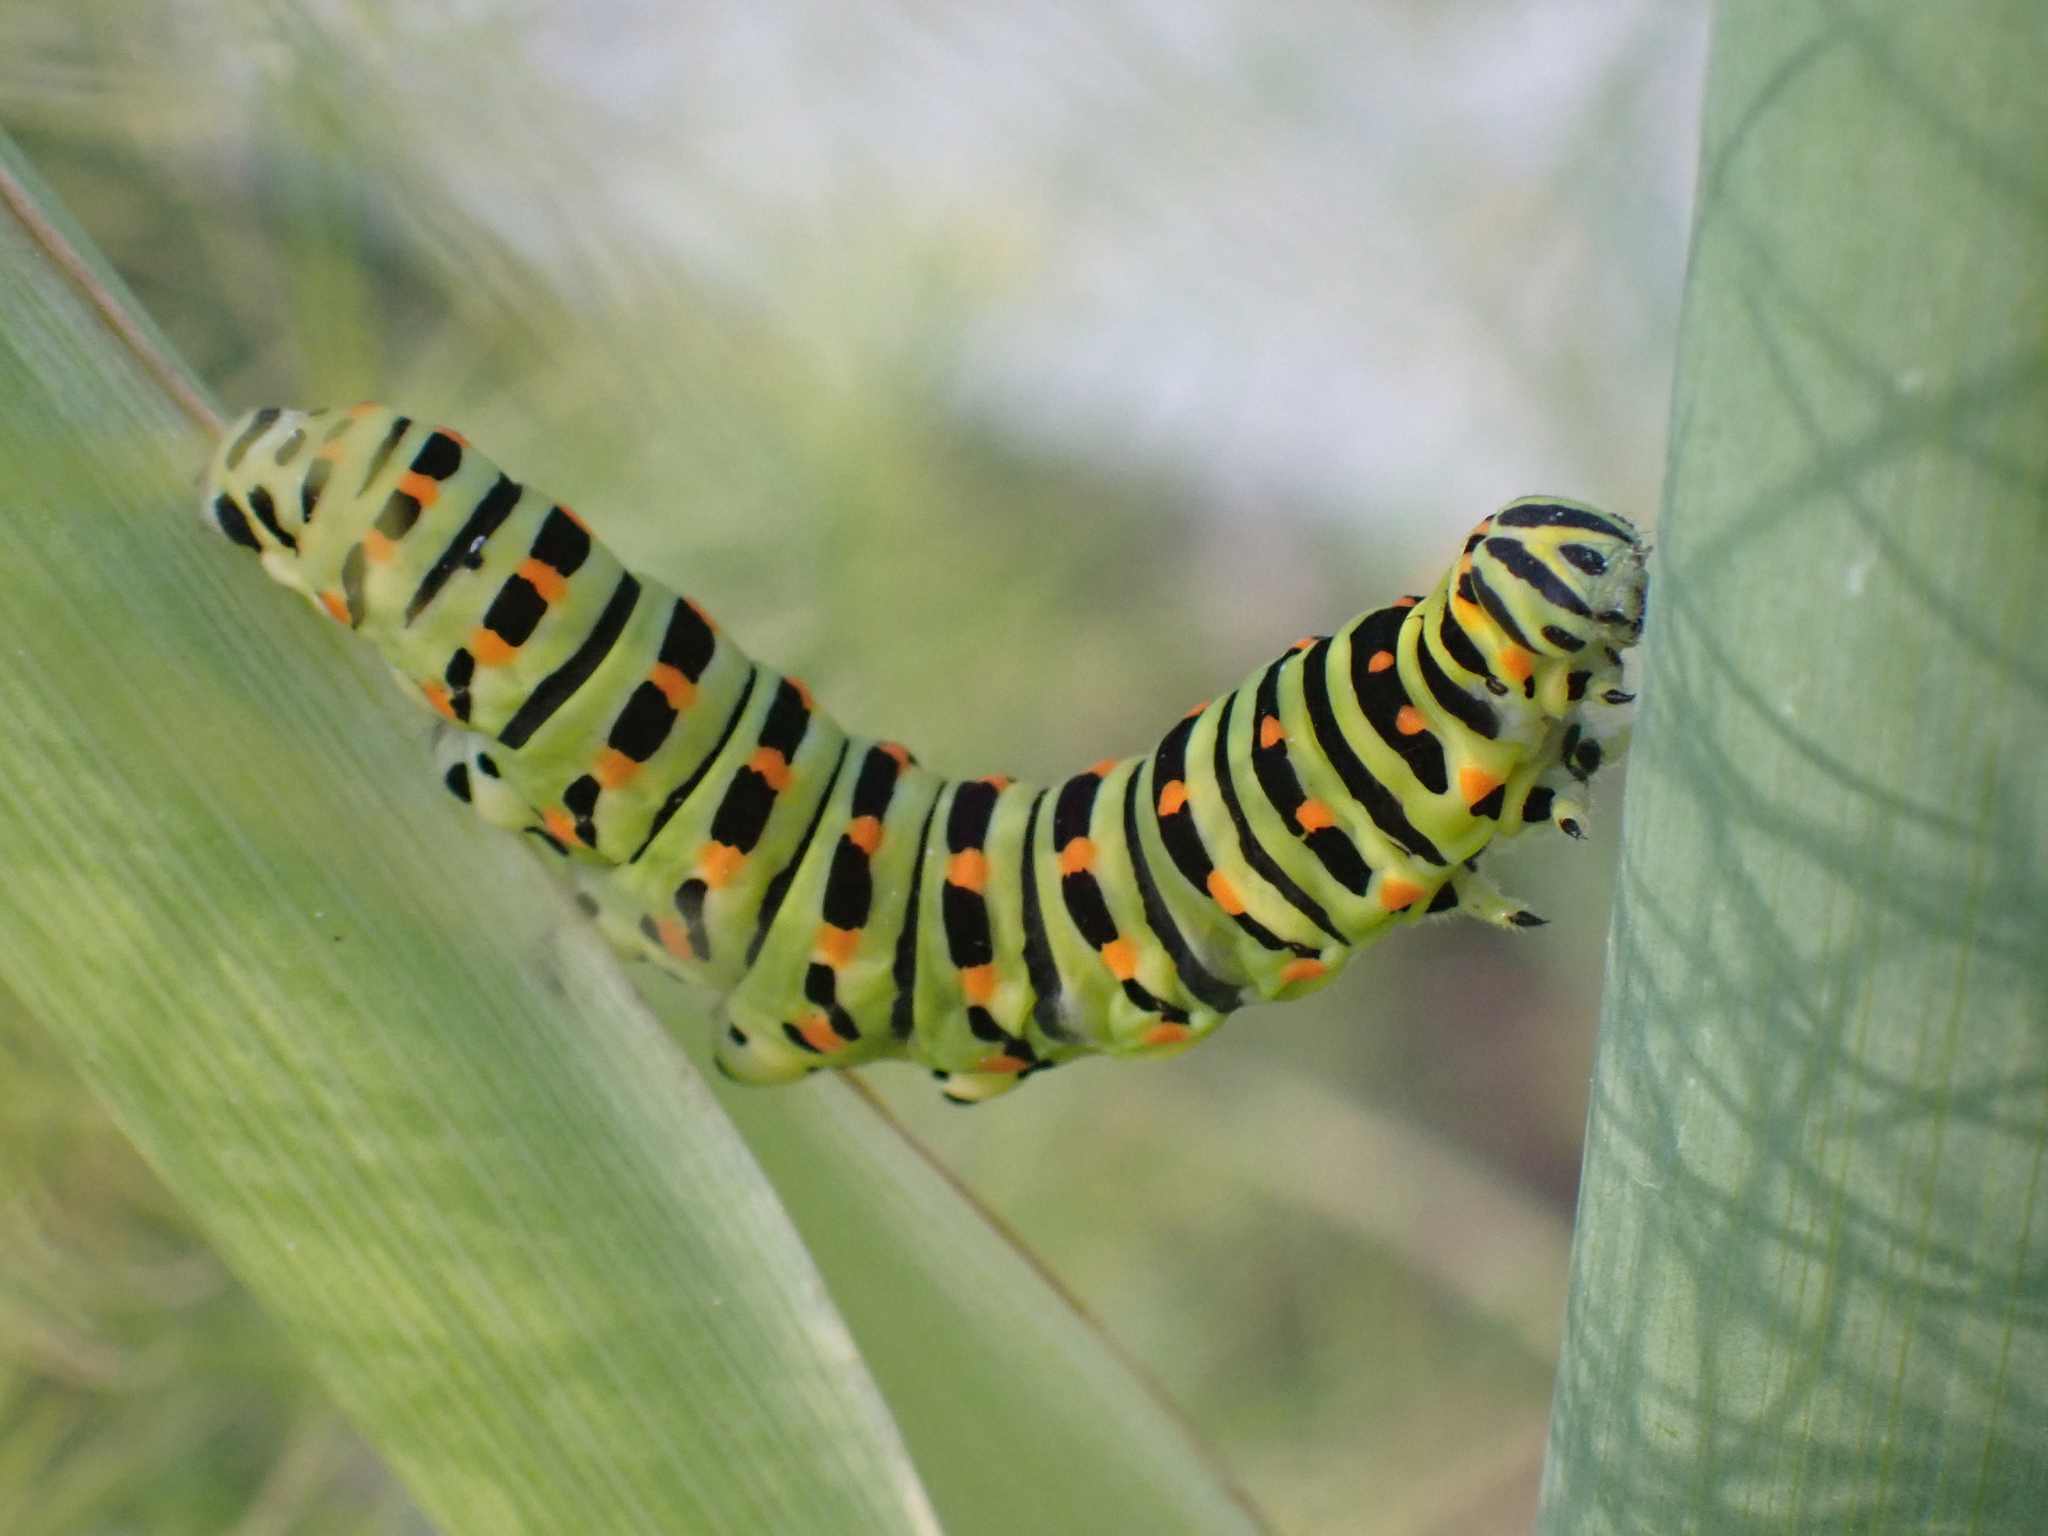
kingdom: Animalia
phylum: Arthropoda
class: Insecta
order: Lepidoptera
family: Papilionidae
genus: Papilio
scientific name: Papilio machaon
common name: Swallowtail
